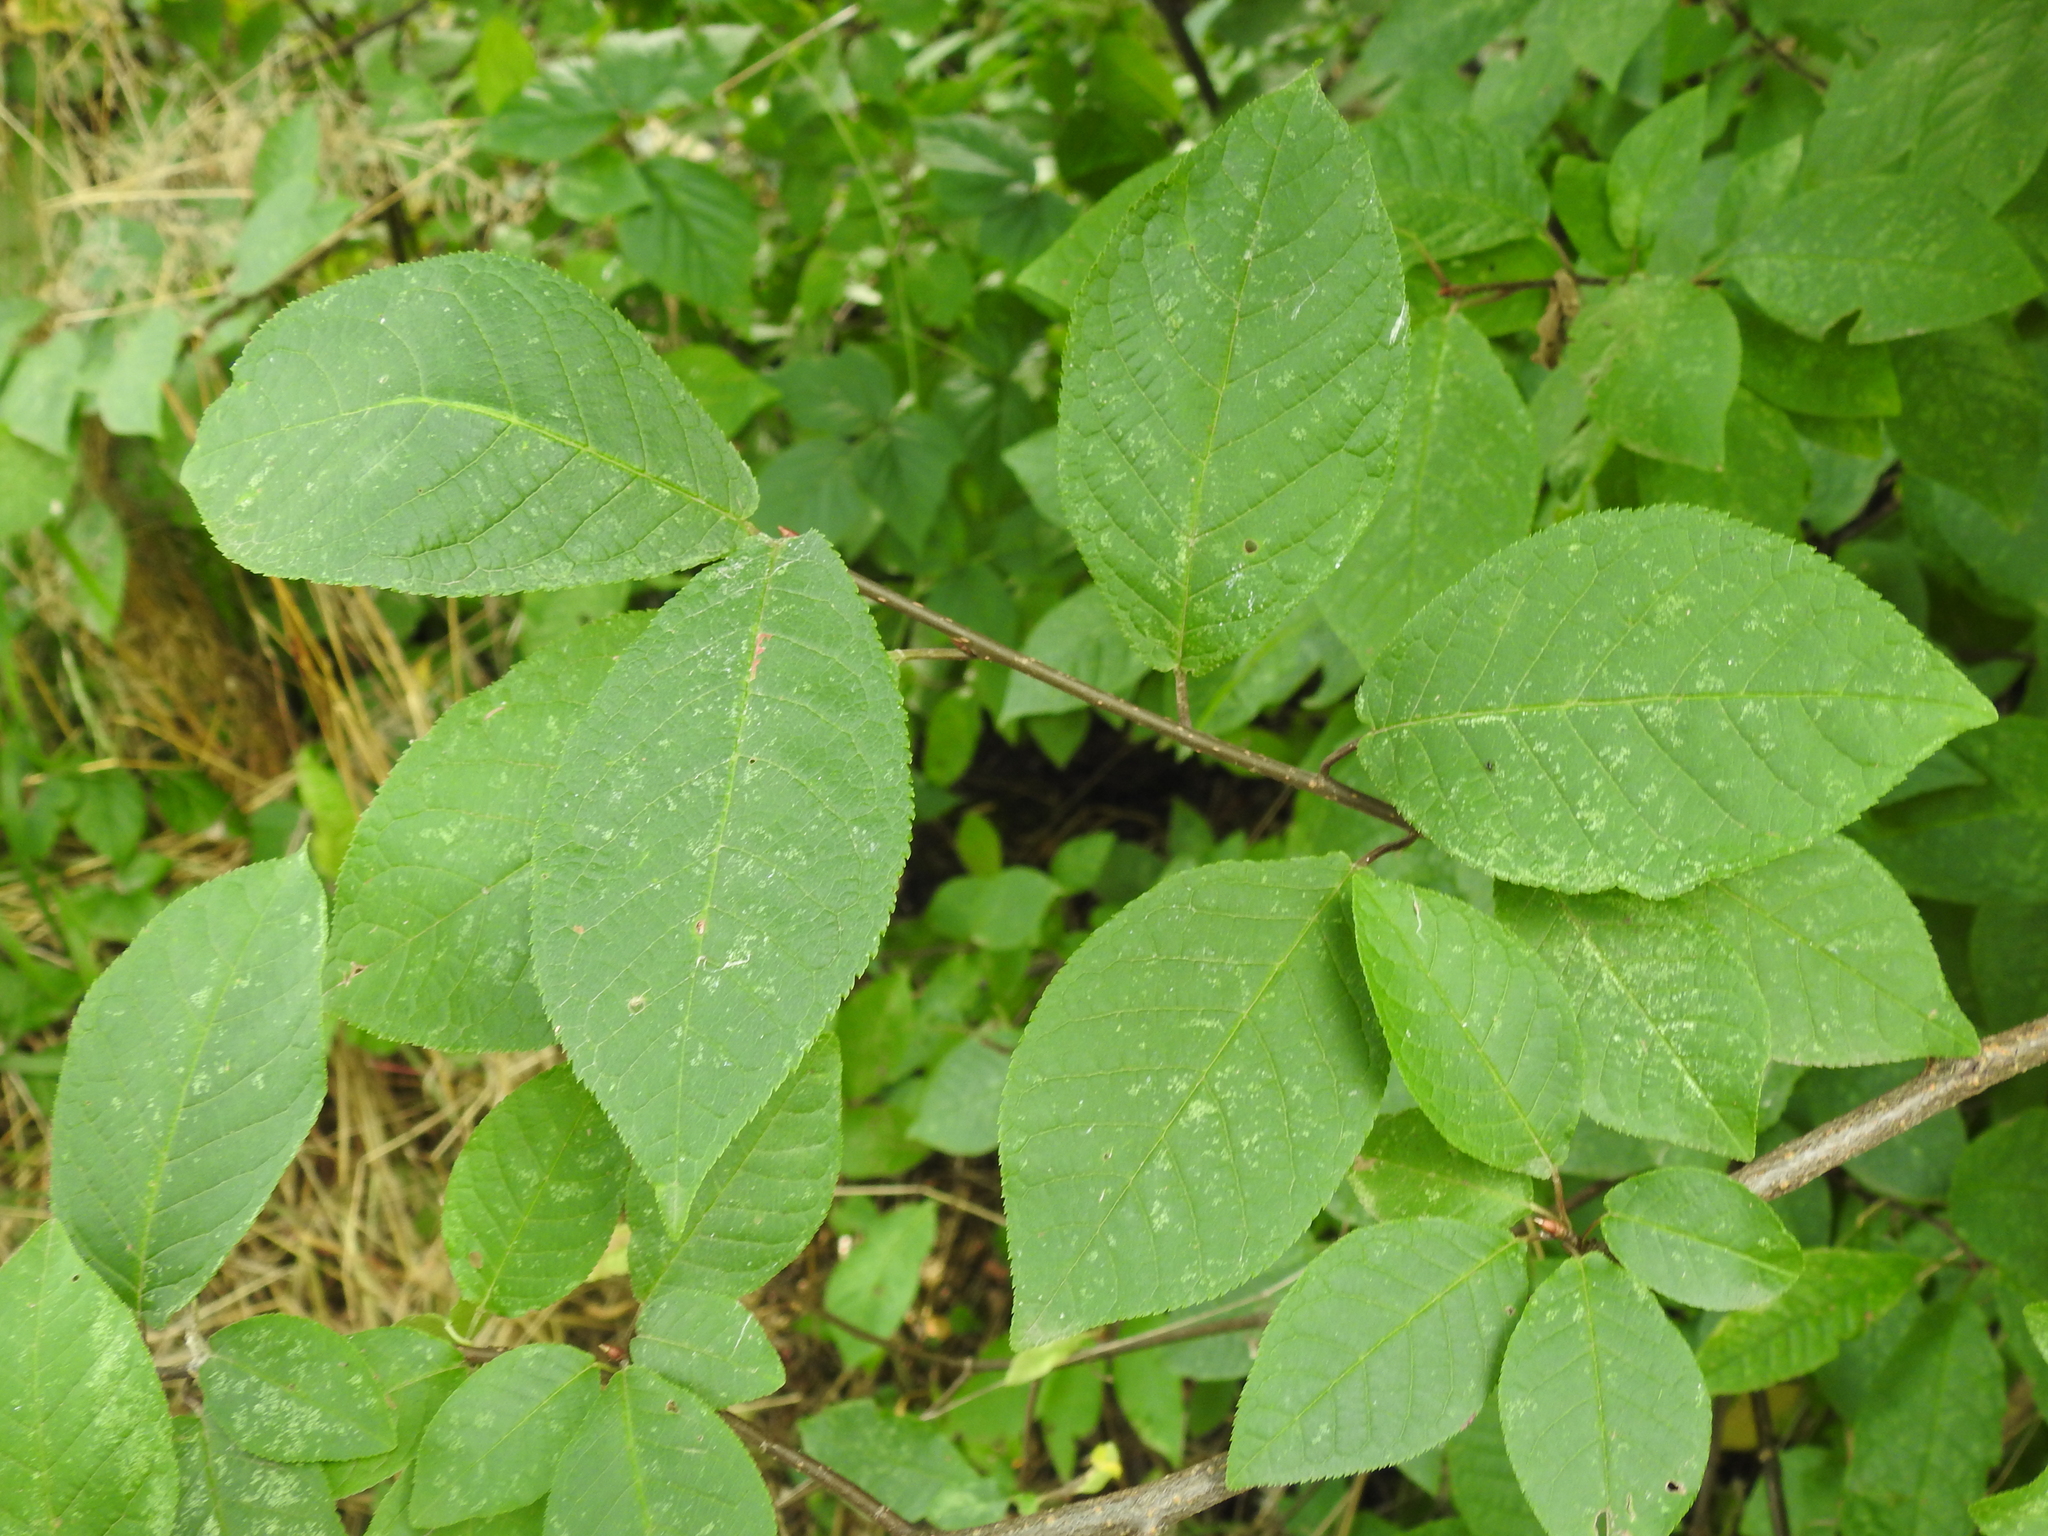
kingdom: Plantae
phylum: Tracheophyta
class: Magnoliopsida
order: Rosales
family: Rosaceae
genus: Prunus
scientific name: Prunus padus
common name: Bird cherry
